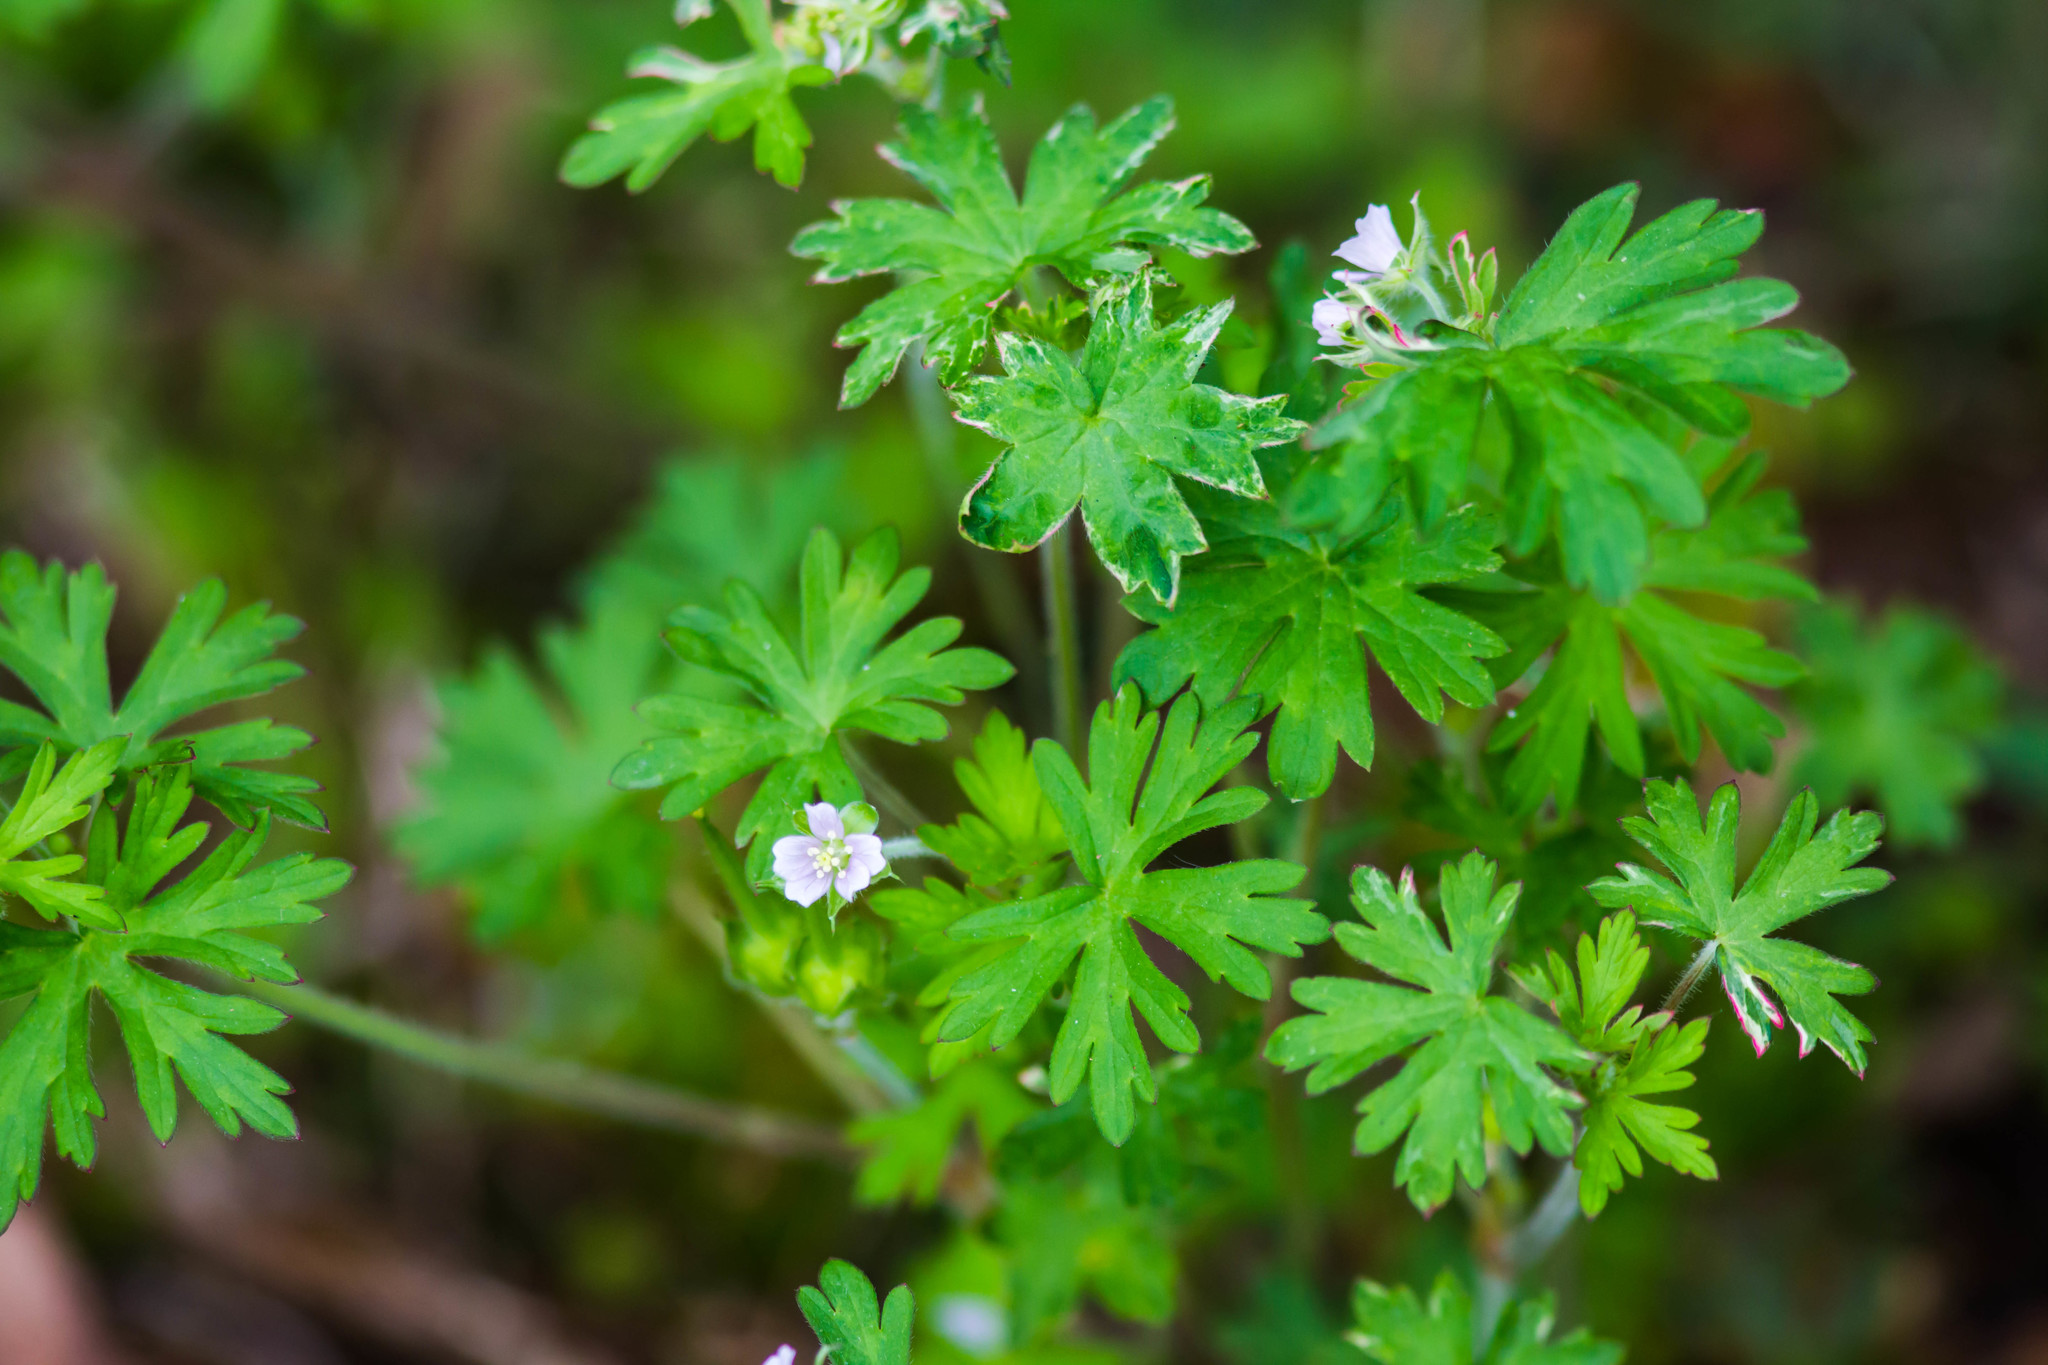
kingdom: Plantae
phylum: Tracheophyta
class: Magnoliopsida
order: Geraniales
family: Geraniaceae
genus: Geranium
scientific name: Geranium carolinianum
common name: Carolina crane's-bill
